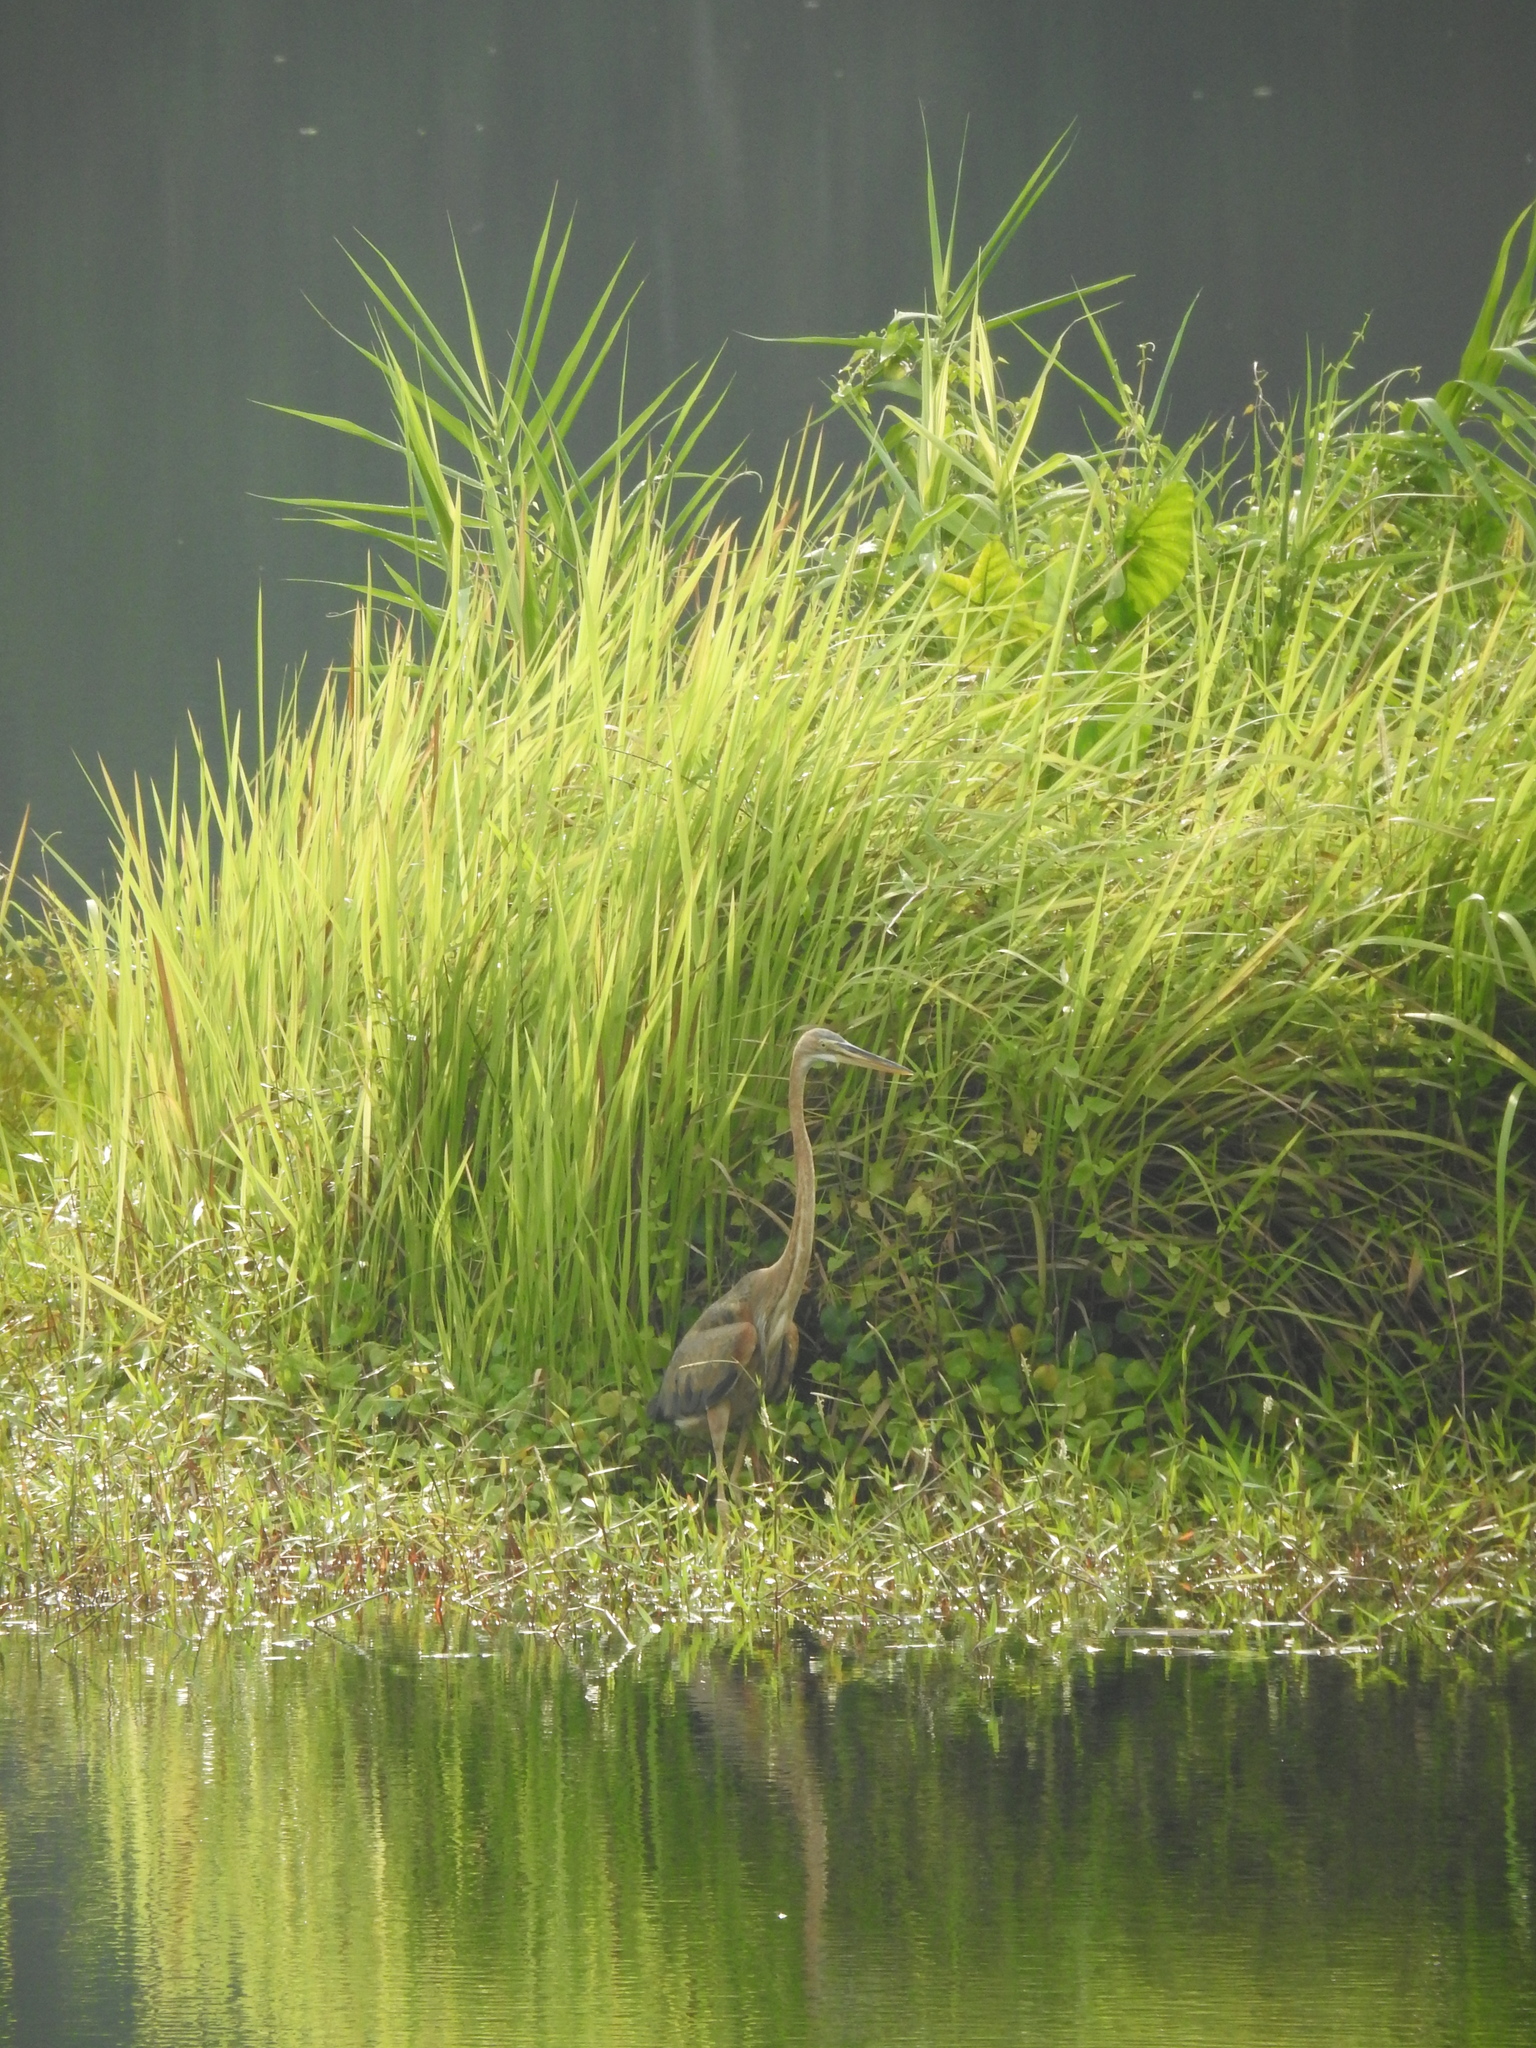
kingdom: Animalia
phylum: Chordata
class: Aves
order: Pelecaniformes
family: Ardeidae
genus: Ardea
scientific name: Ardea purpurea
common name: Purple heron
